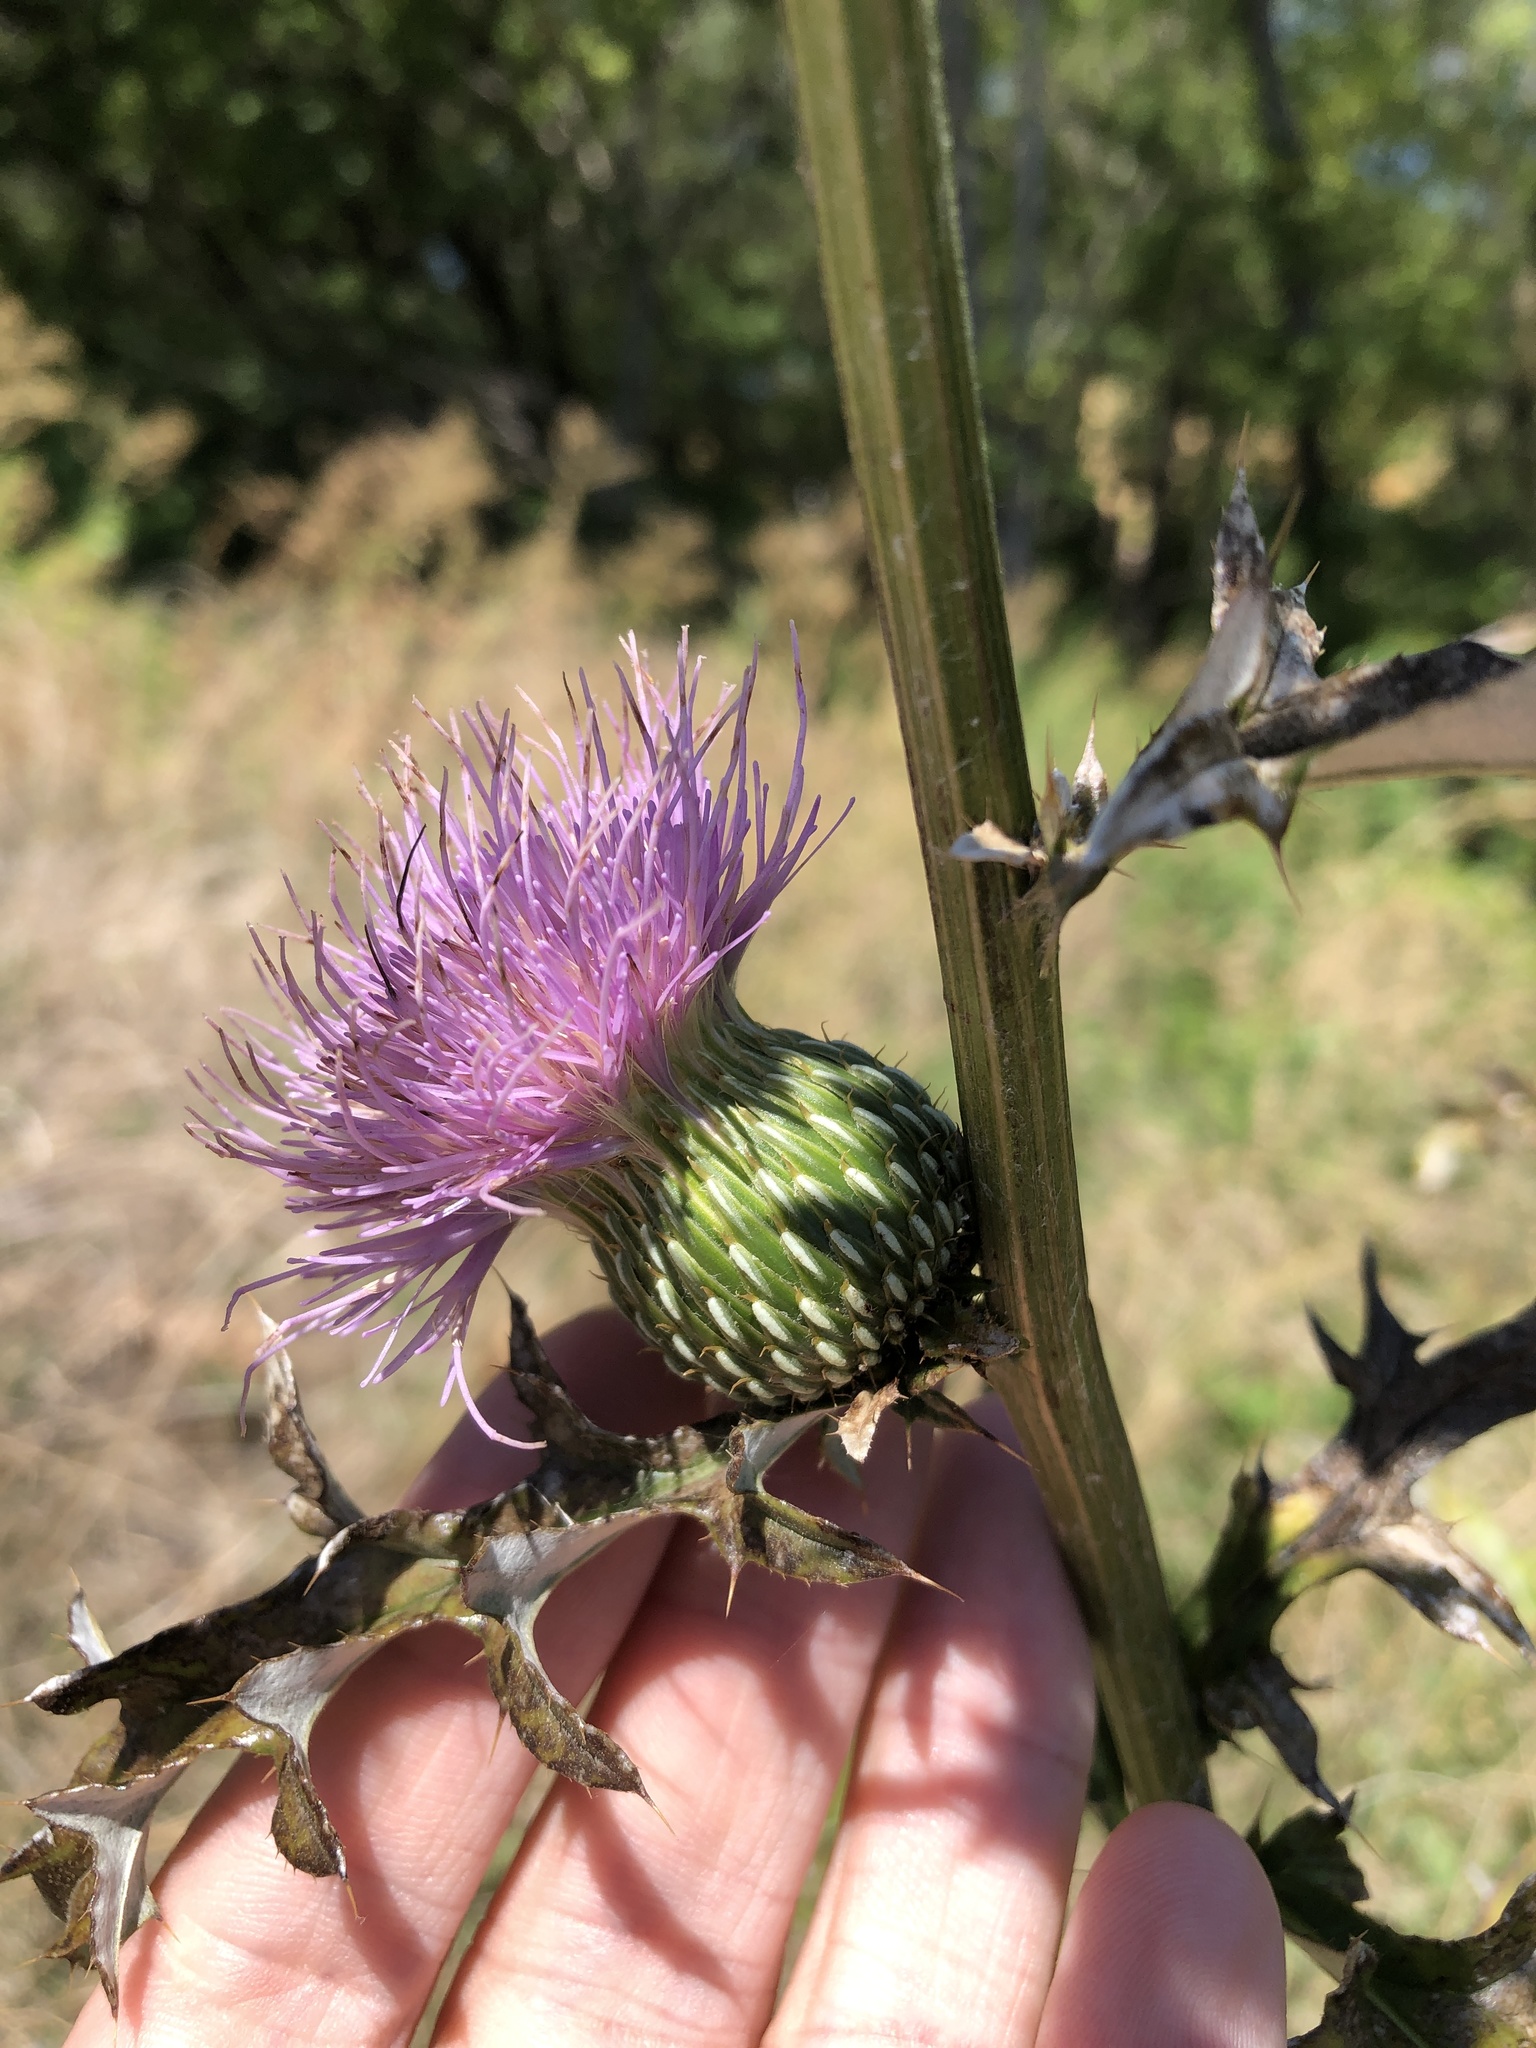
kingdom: Plantae
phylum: Tracheophyta
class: Magnoliopsida
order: Asterales
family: Asteraceae
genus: Cirsium
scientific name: Cirsium engelmannii
